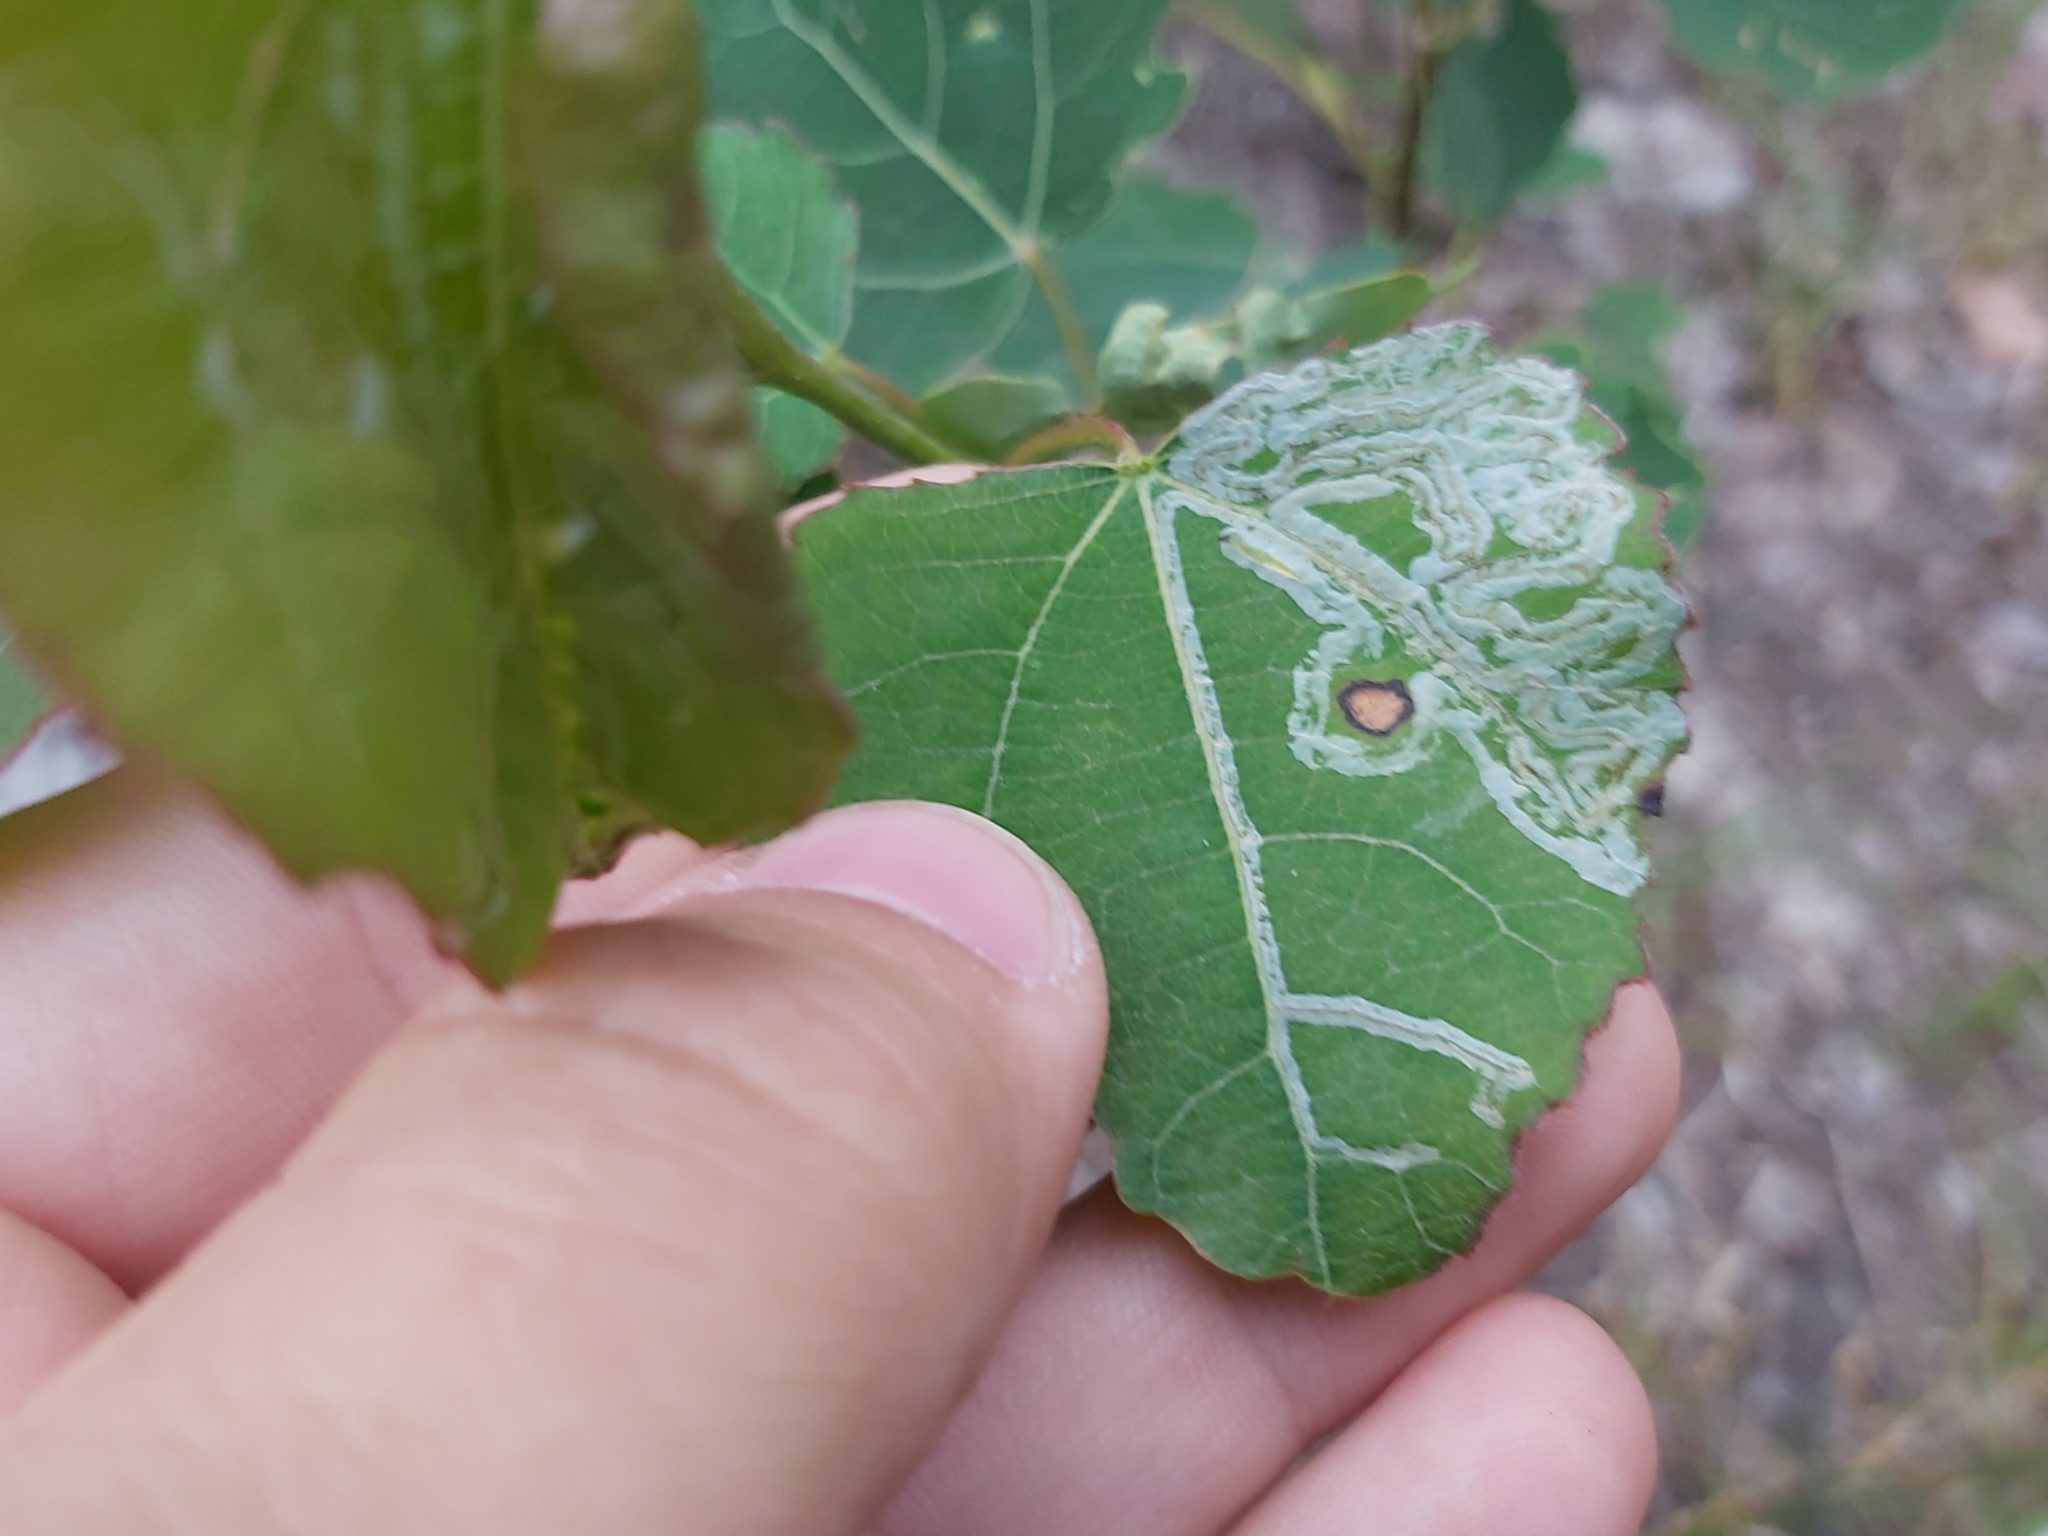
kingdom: Animalia
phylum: Arthropoda
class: Insecta
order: Lepidoptera
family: Gracillariidae
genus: Phyllocnistis
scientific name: Phyllocnistis labyrinthella
